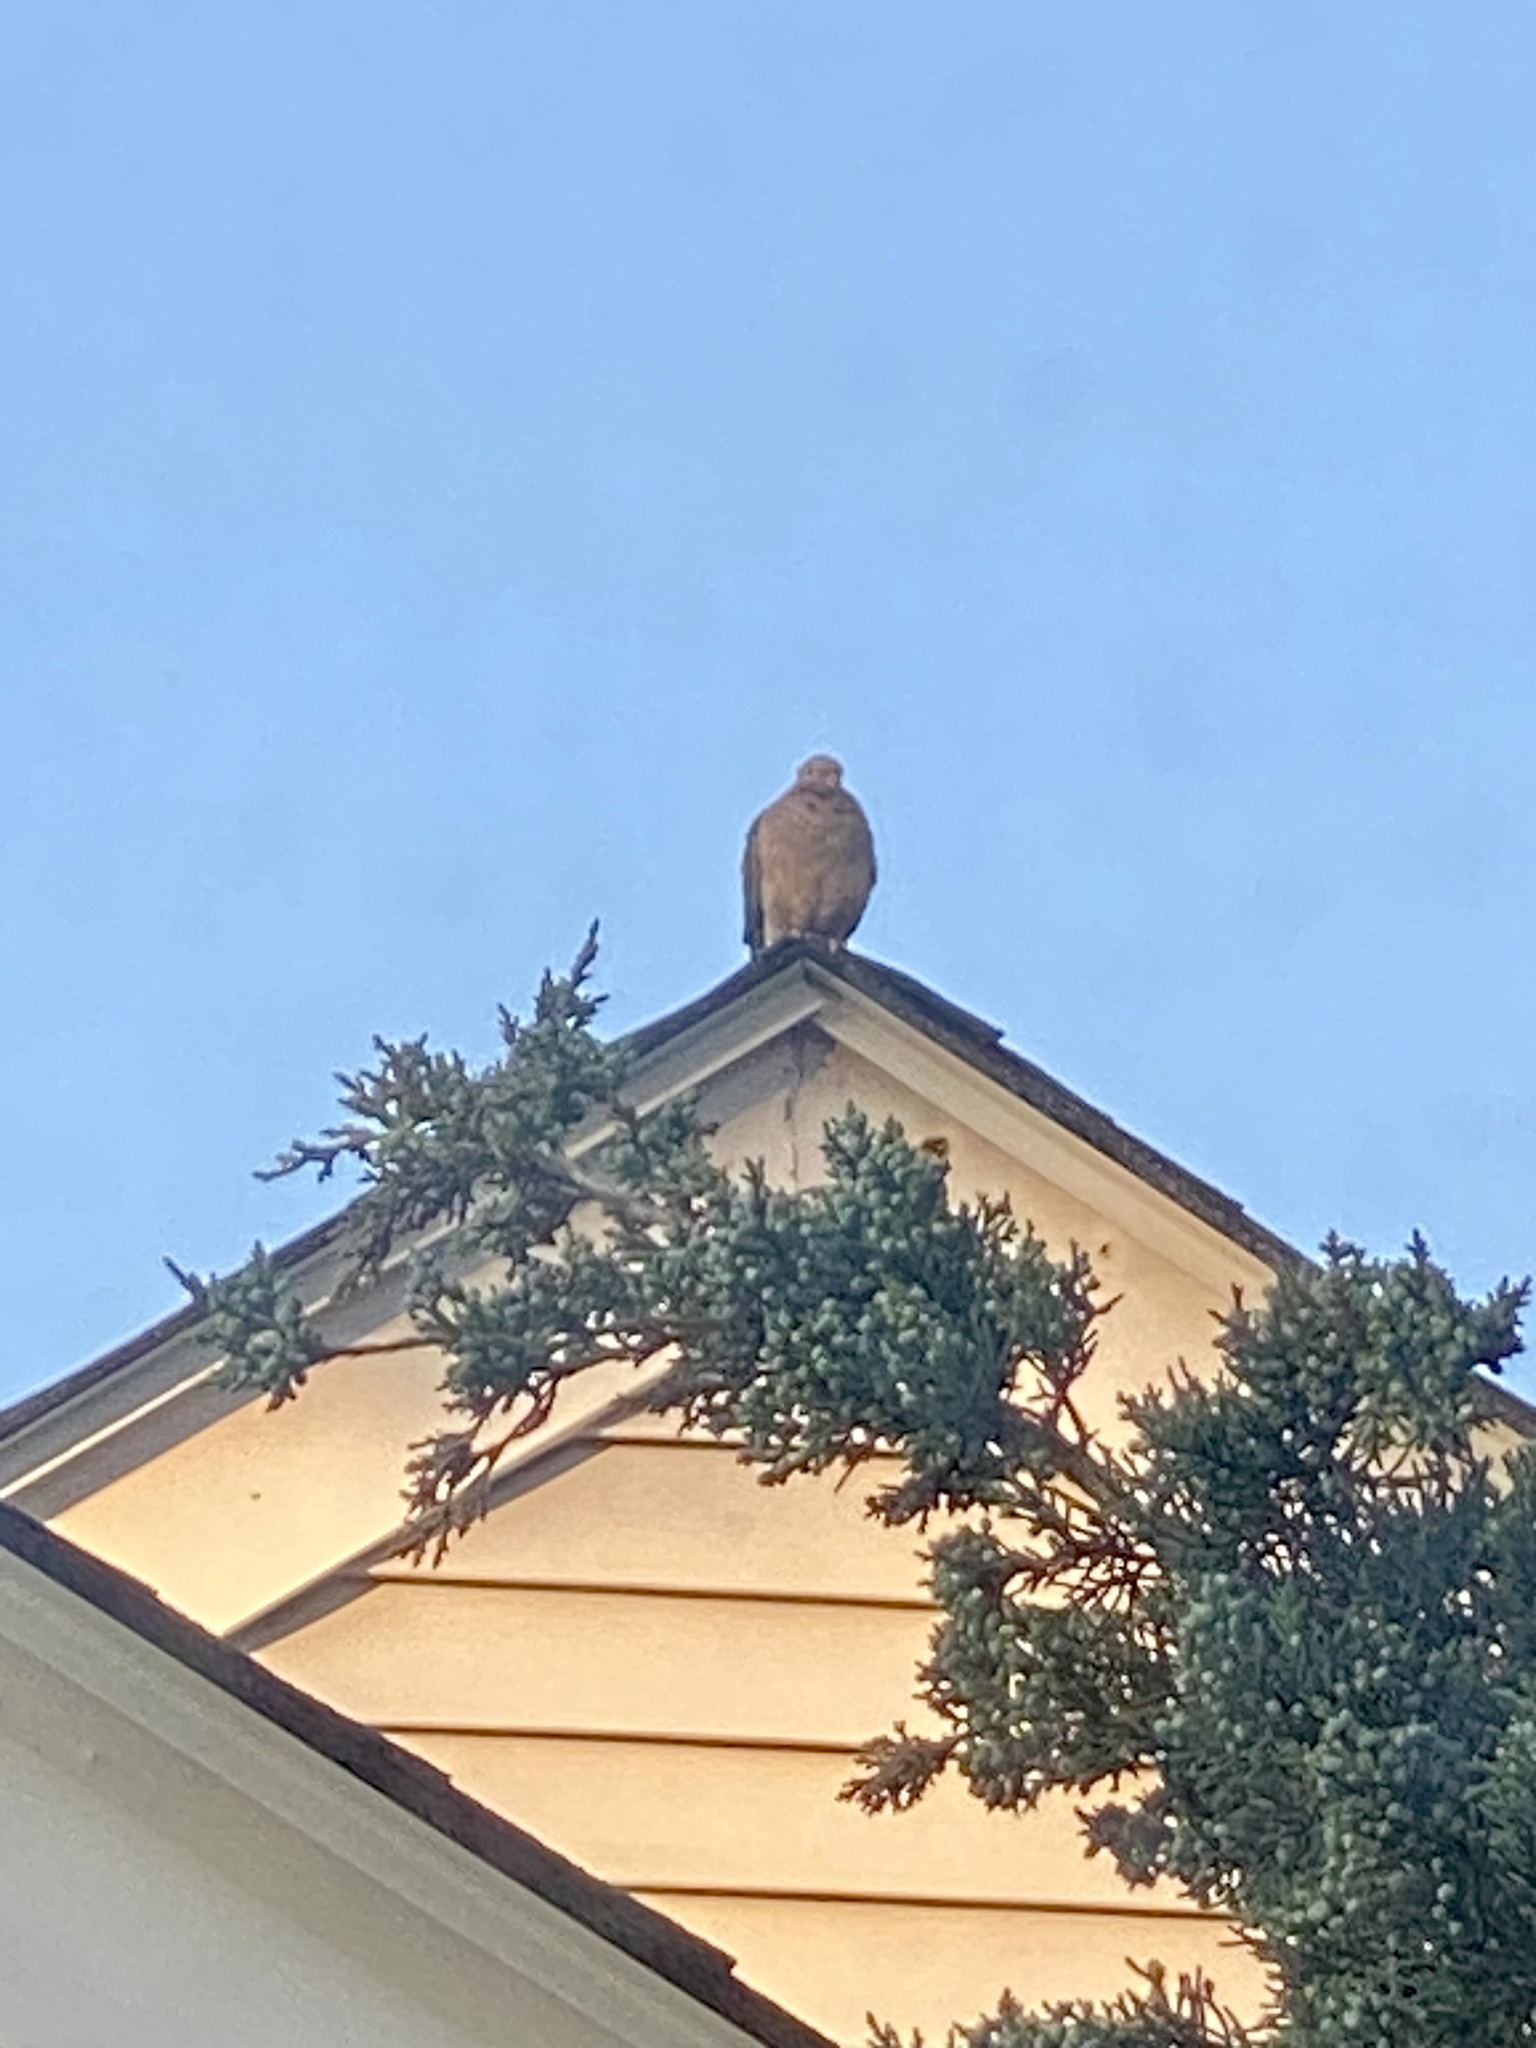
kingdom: Animalia
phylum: Chordata
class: Aves
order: Columbiformes
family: Columbidae
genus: Zenaida
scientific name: Zenaida macroura
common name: Mourning dove
